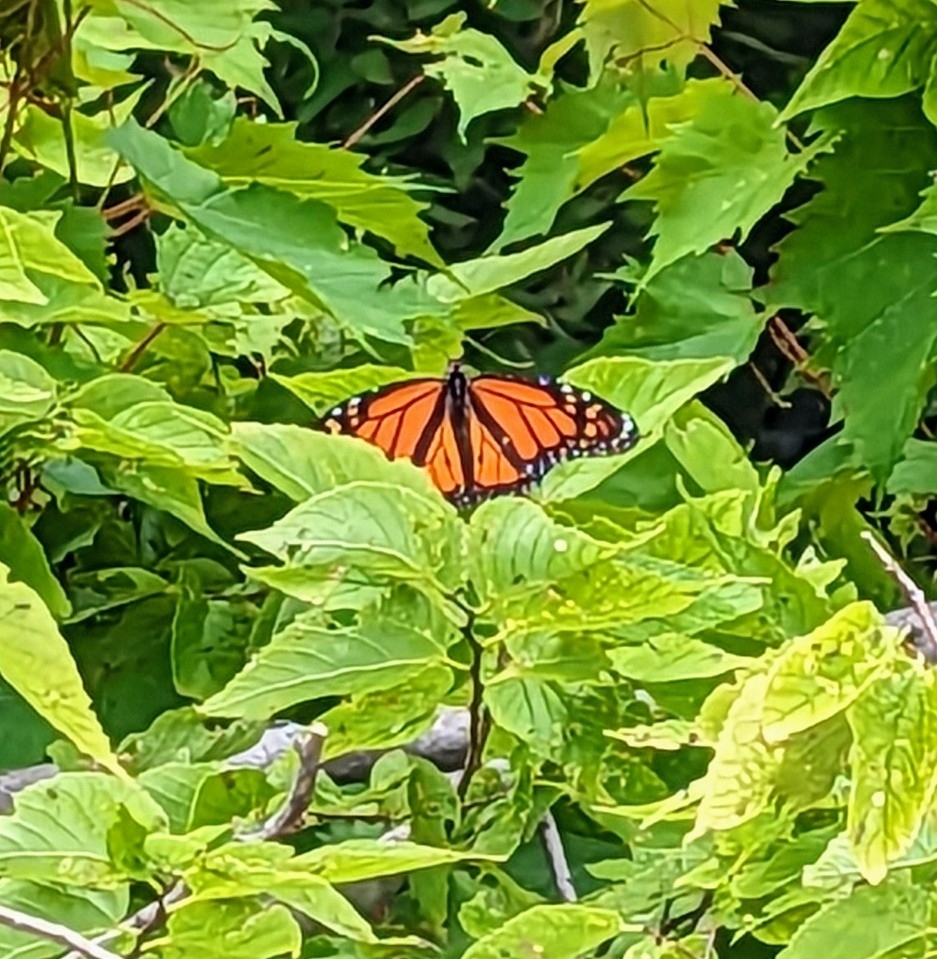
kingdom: Animalia
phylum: Arthropoda
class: Insecta
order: Lepidoptera
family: Nymphalidae
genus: Danaus
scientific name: Danaus plexippus
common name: Monarch
